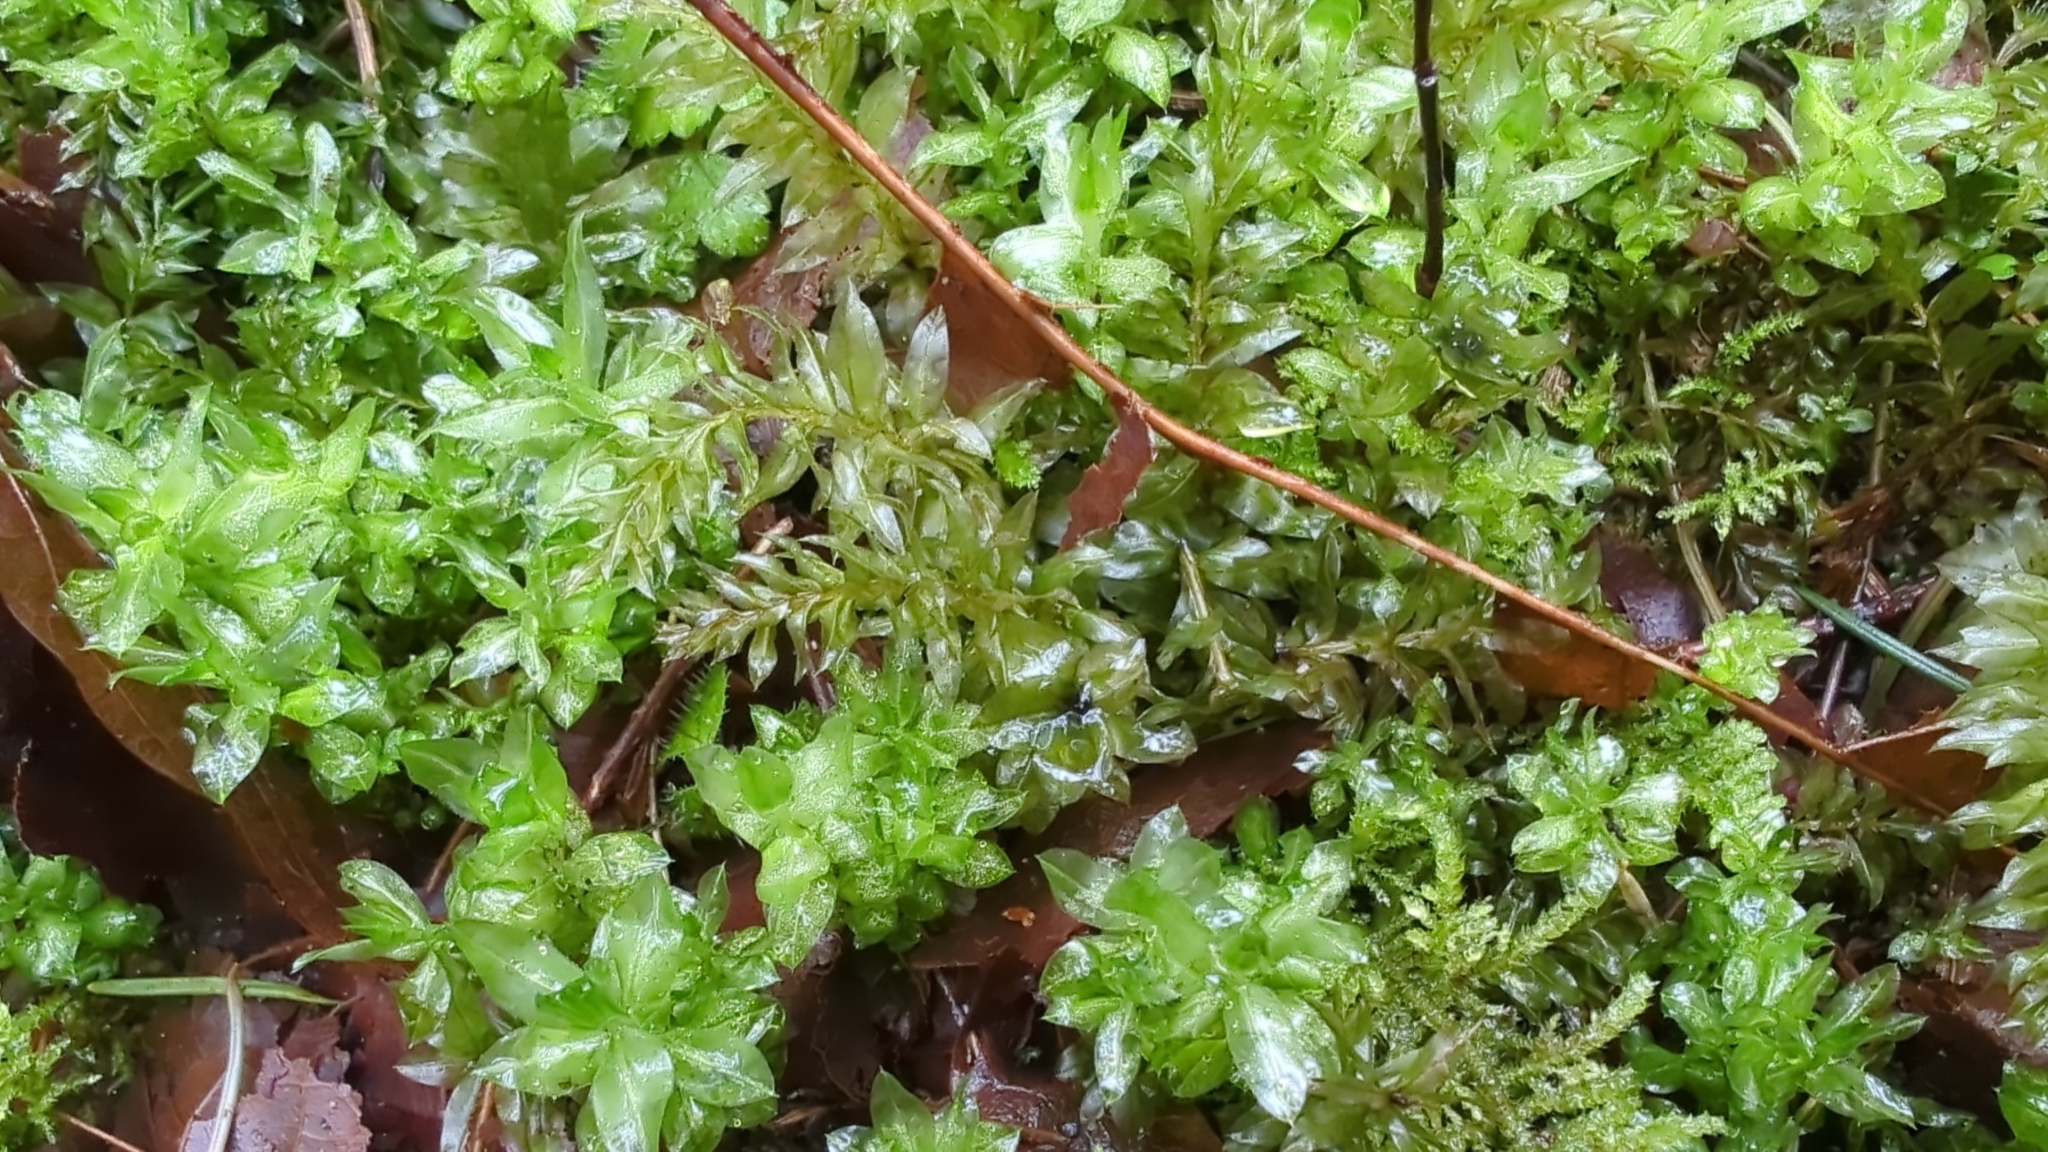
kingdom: Plantae
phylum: Bryophyta
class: Bryopsida
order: Bryales
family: Mniaceae
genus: Plagiomnium
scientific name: Plagiomnium insigne
